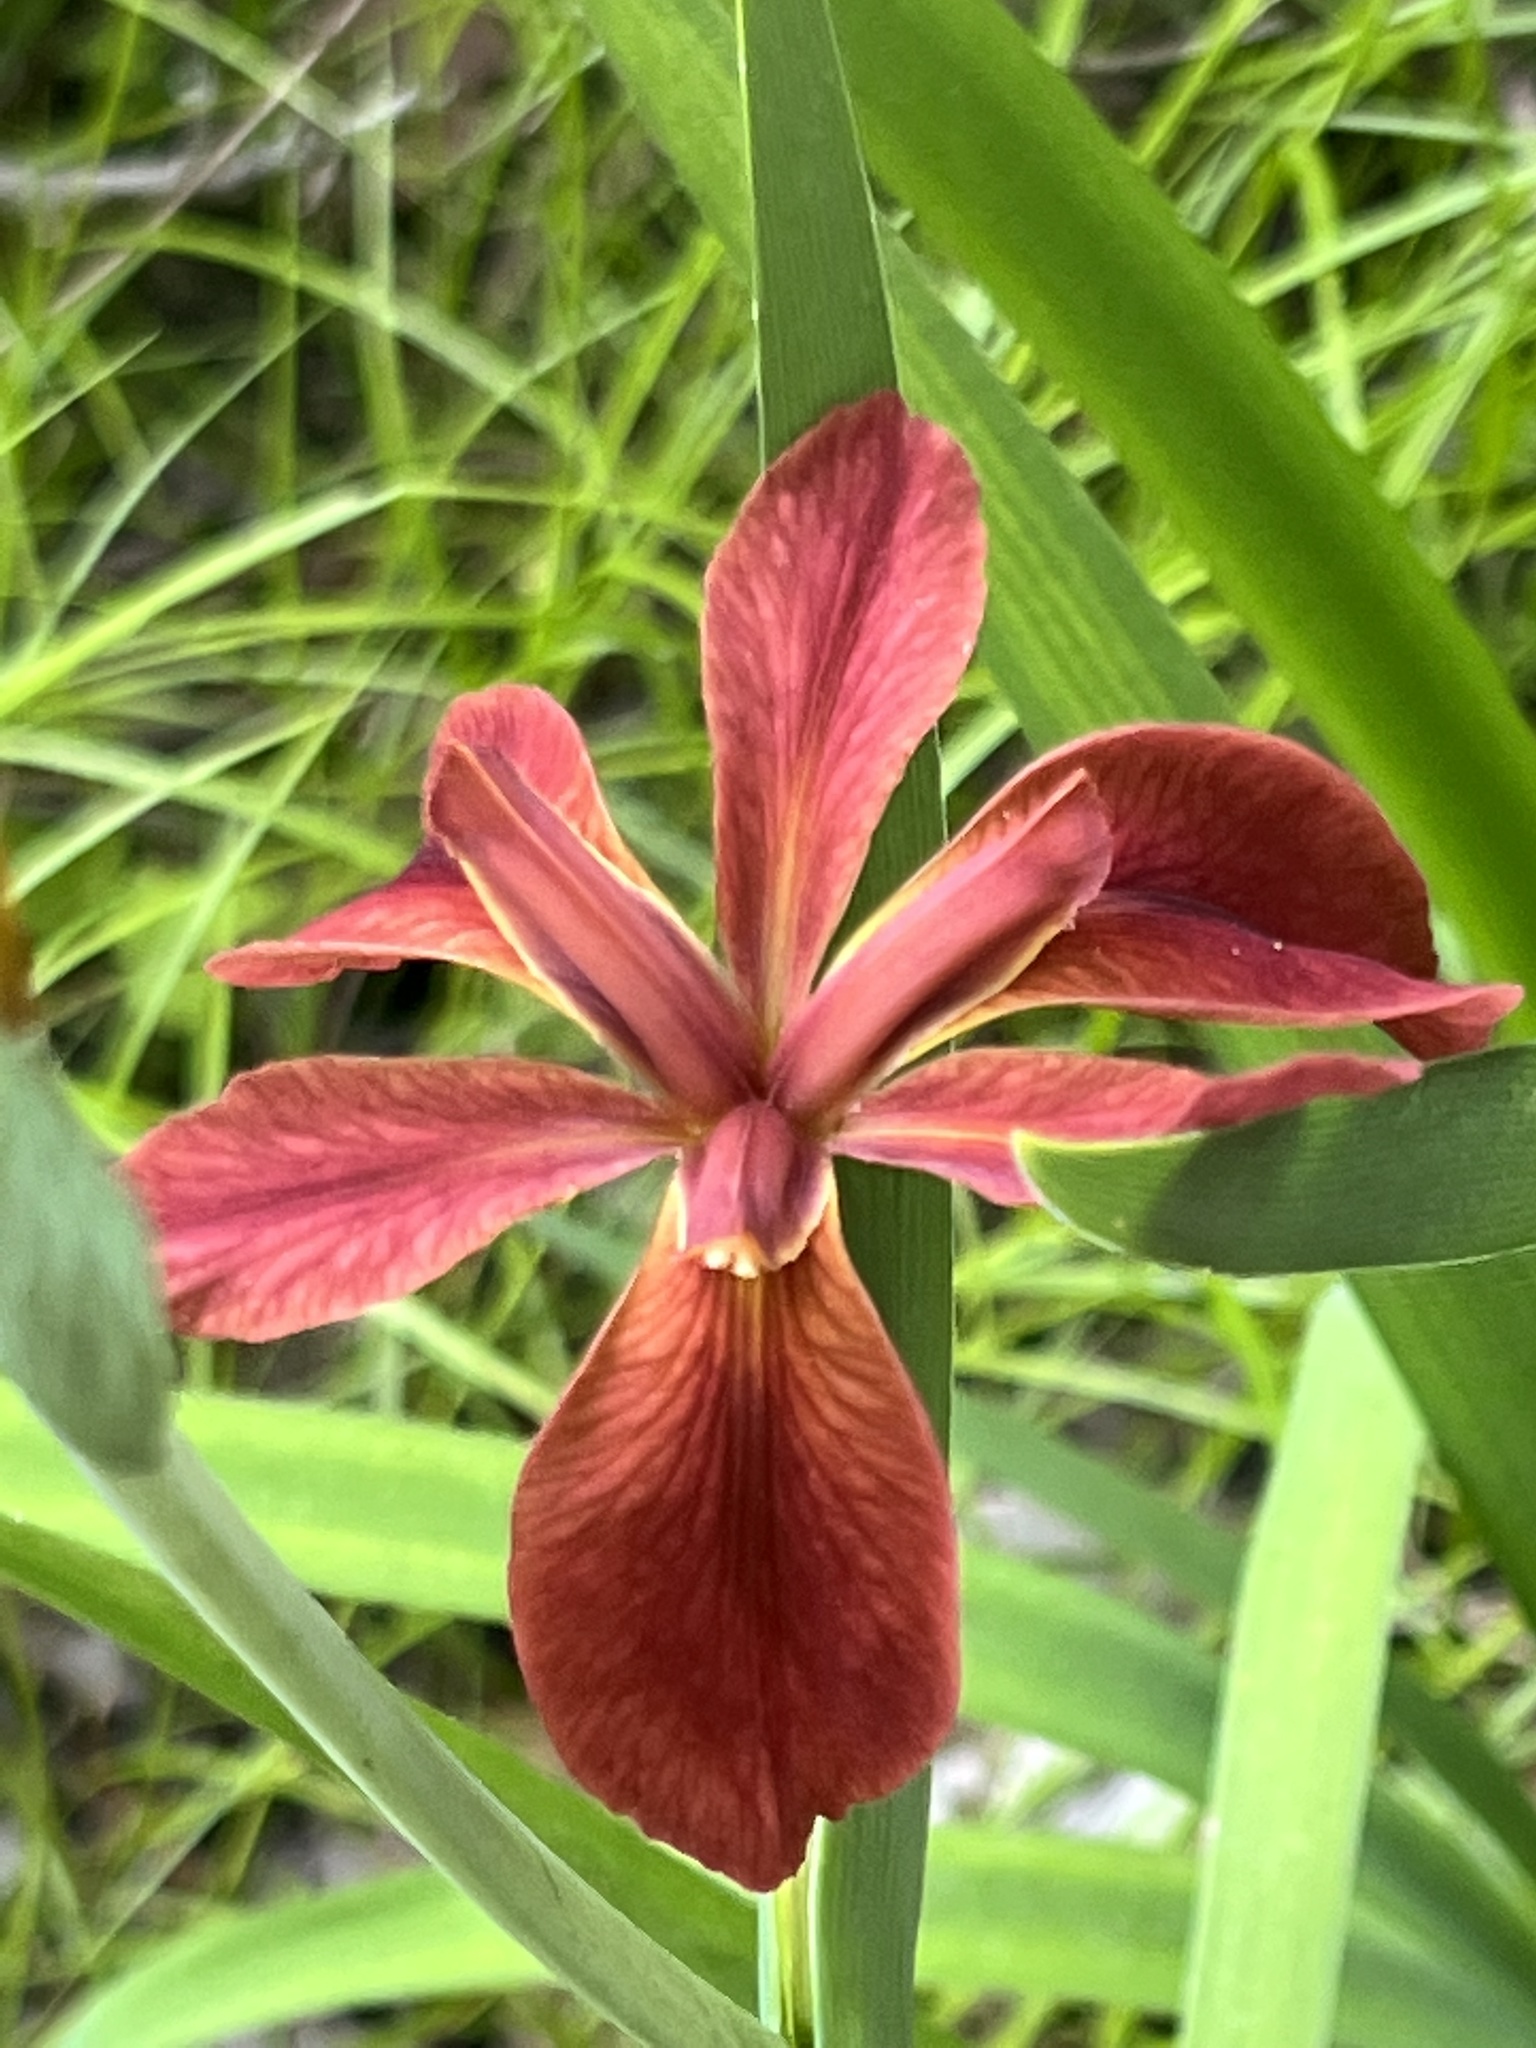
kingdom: Plantae
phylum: Tracheophyta
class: Liliopsida
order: Asparagales
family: Iridaceae
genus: Iris
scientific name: Iris fulva
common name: Copper iris
